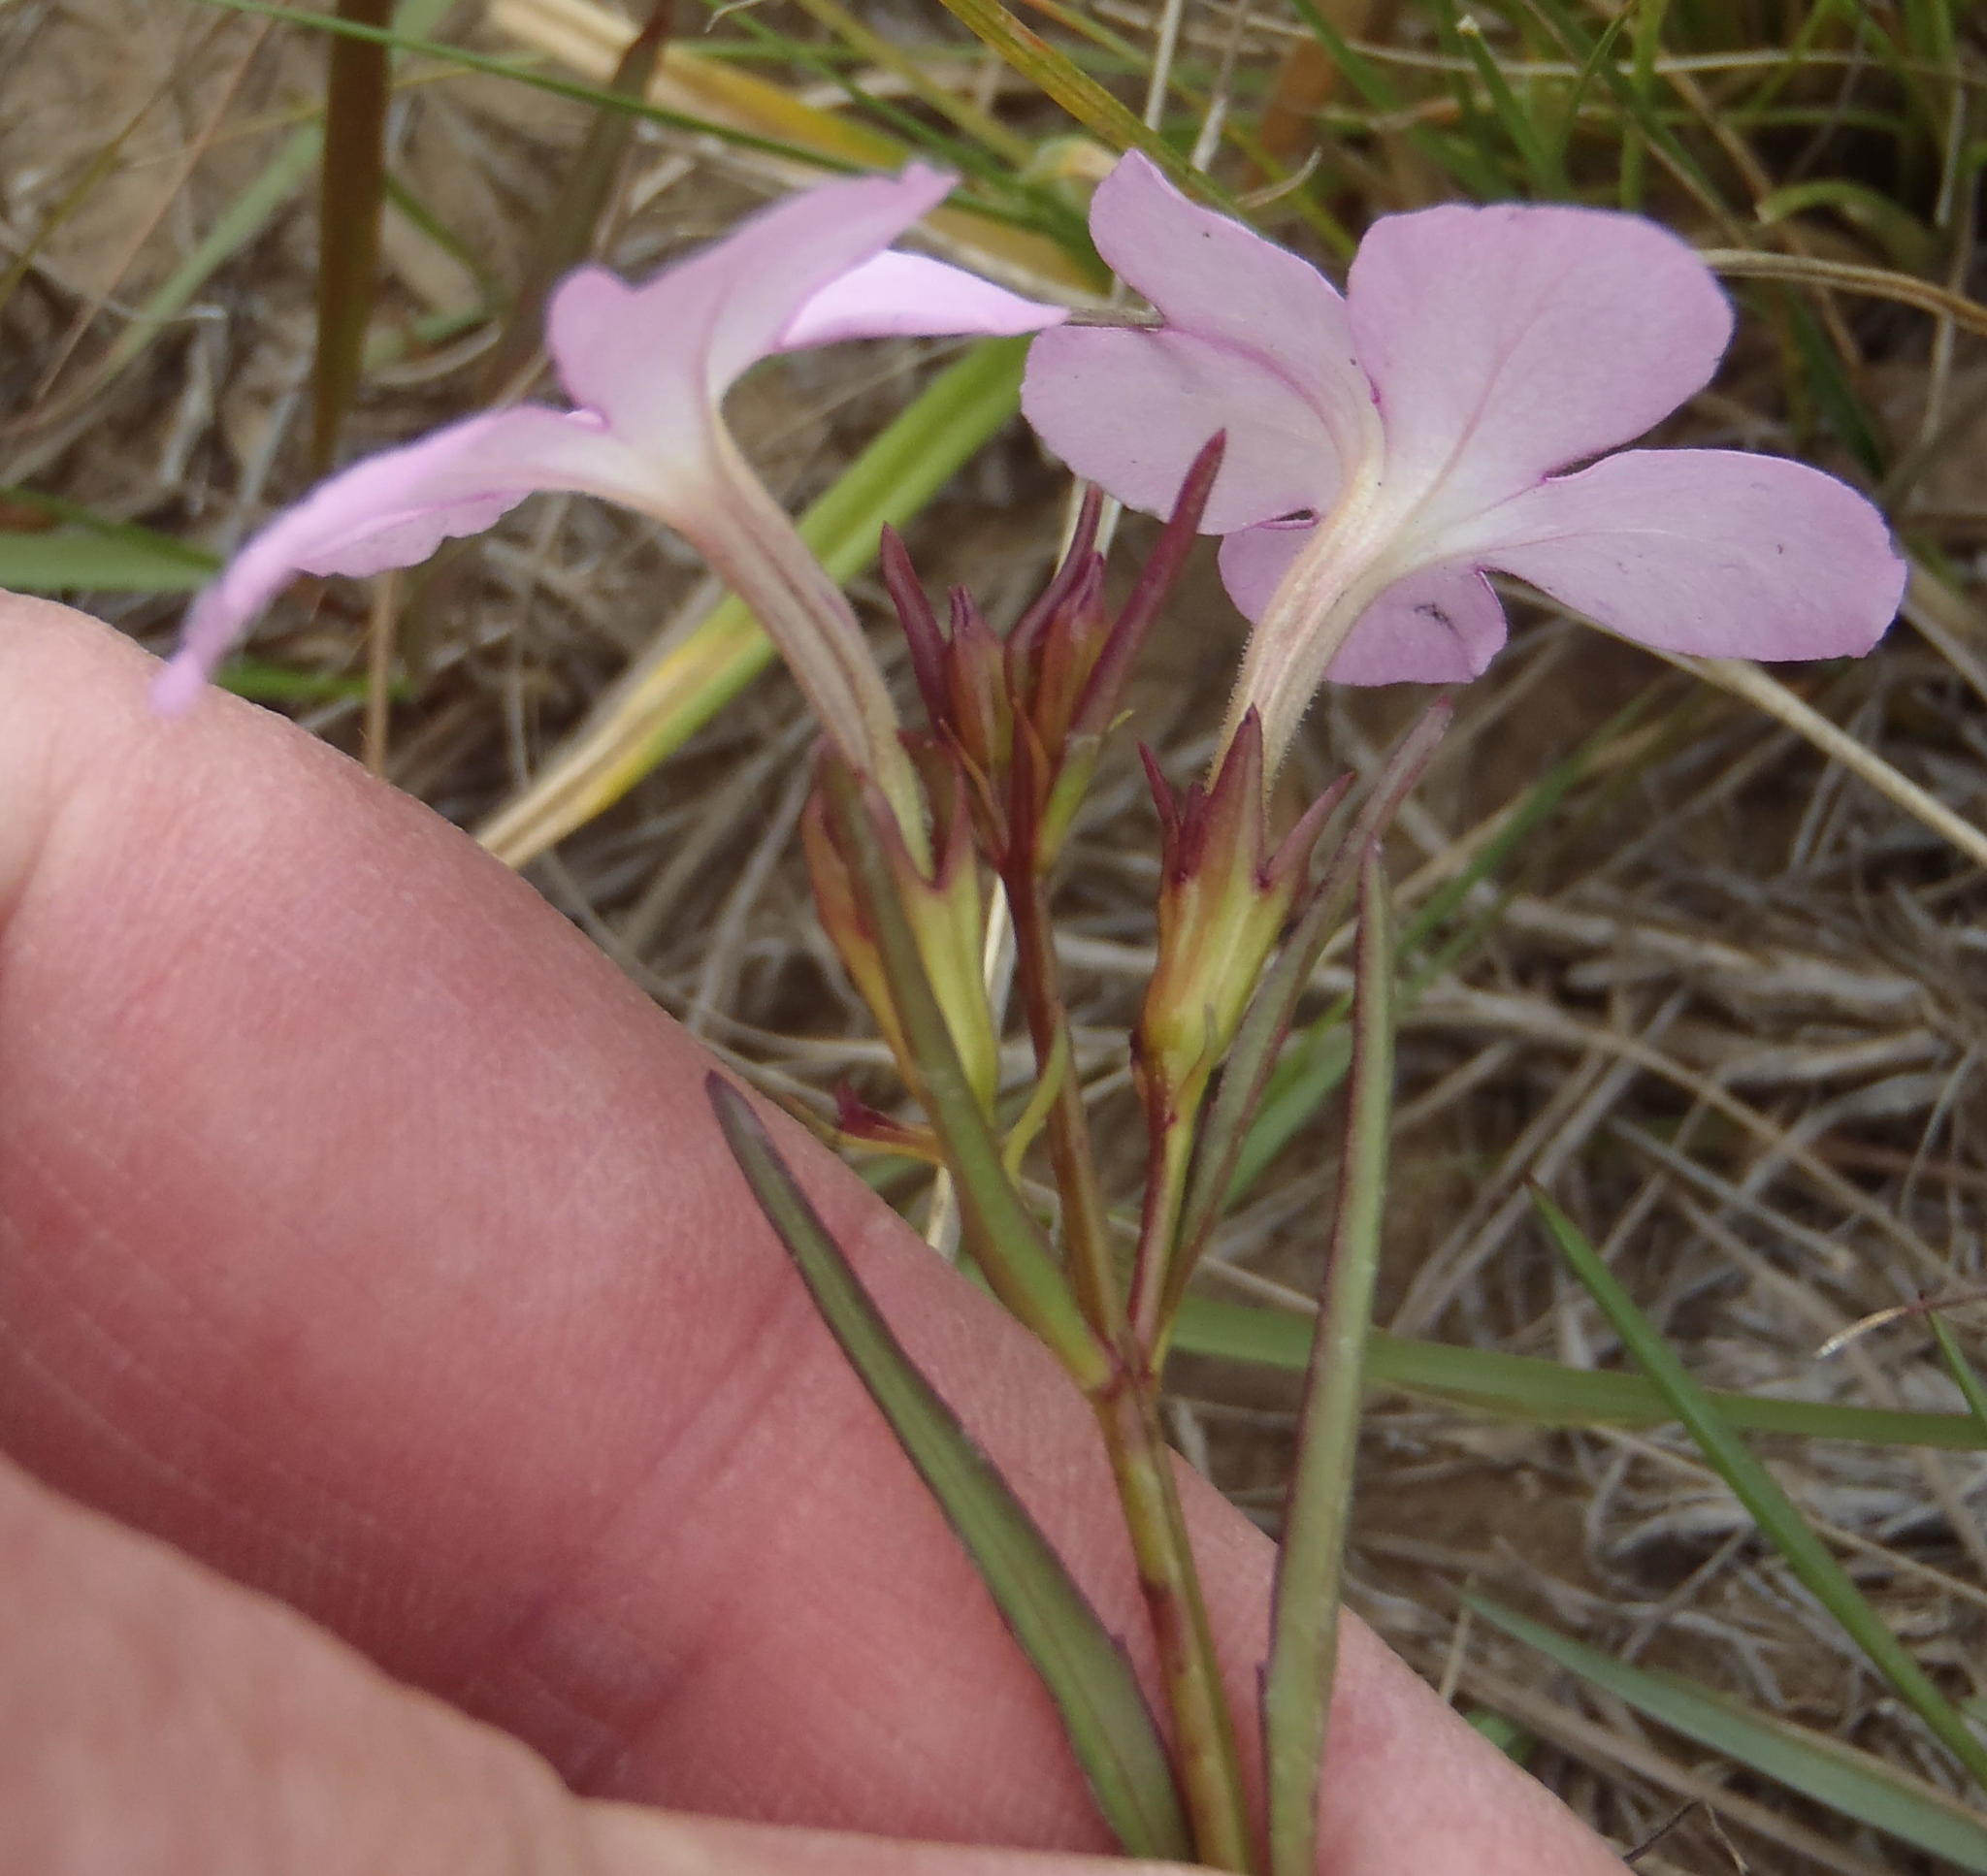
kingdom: Plantae
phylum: Tracheophyta
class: Magnoliopsida
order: Lamiales
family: Orobanchaceae
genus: Cycnium
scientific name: Cycnium tubulosum
